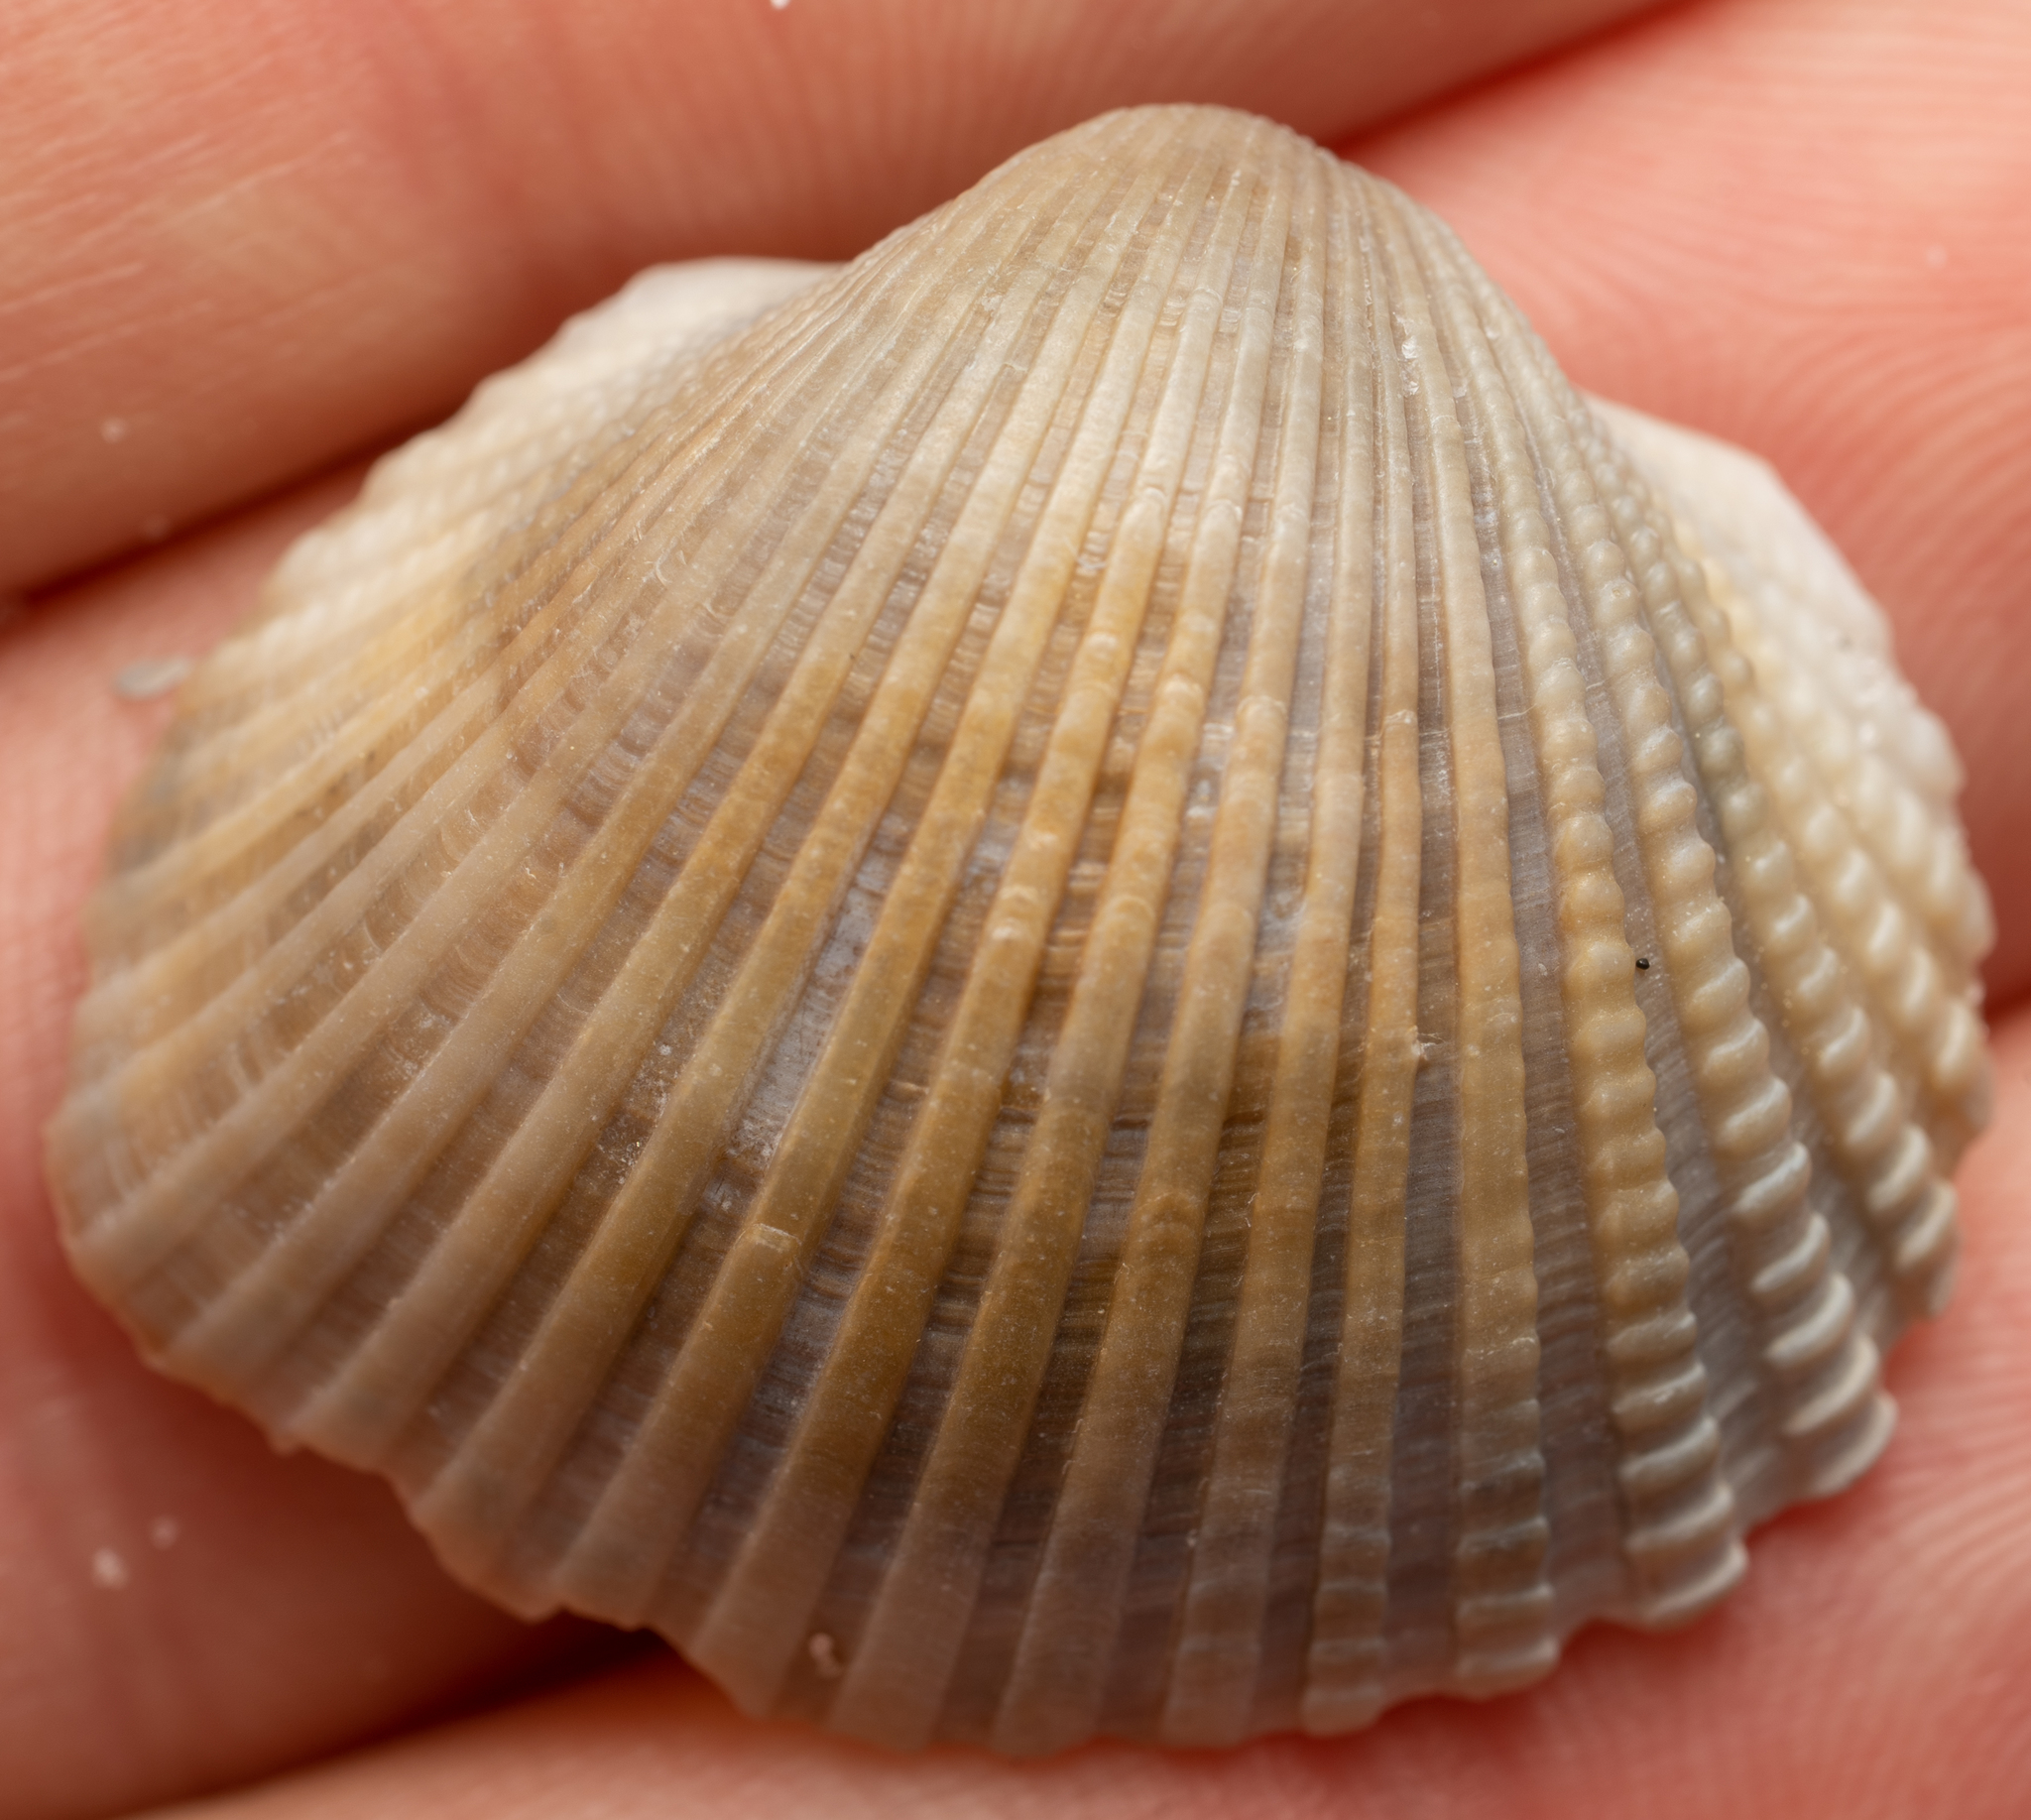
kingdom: Animalia
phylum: Mollusca
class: Bivalvia
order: Arcida
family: Arcidae
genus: Anadara
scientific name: Anadara brasiliana
